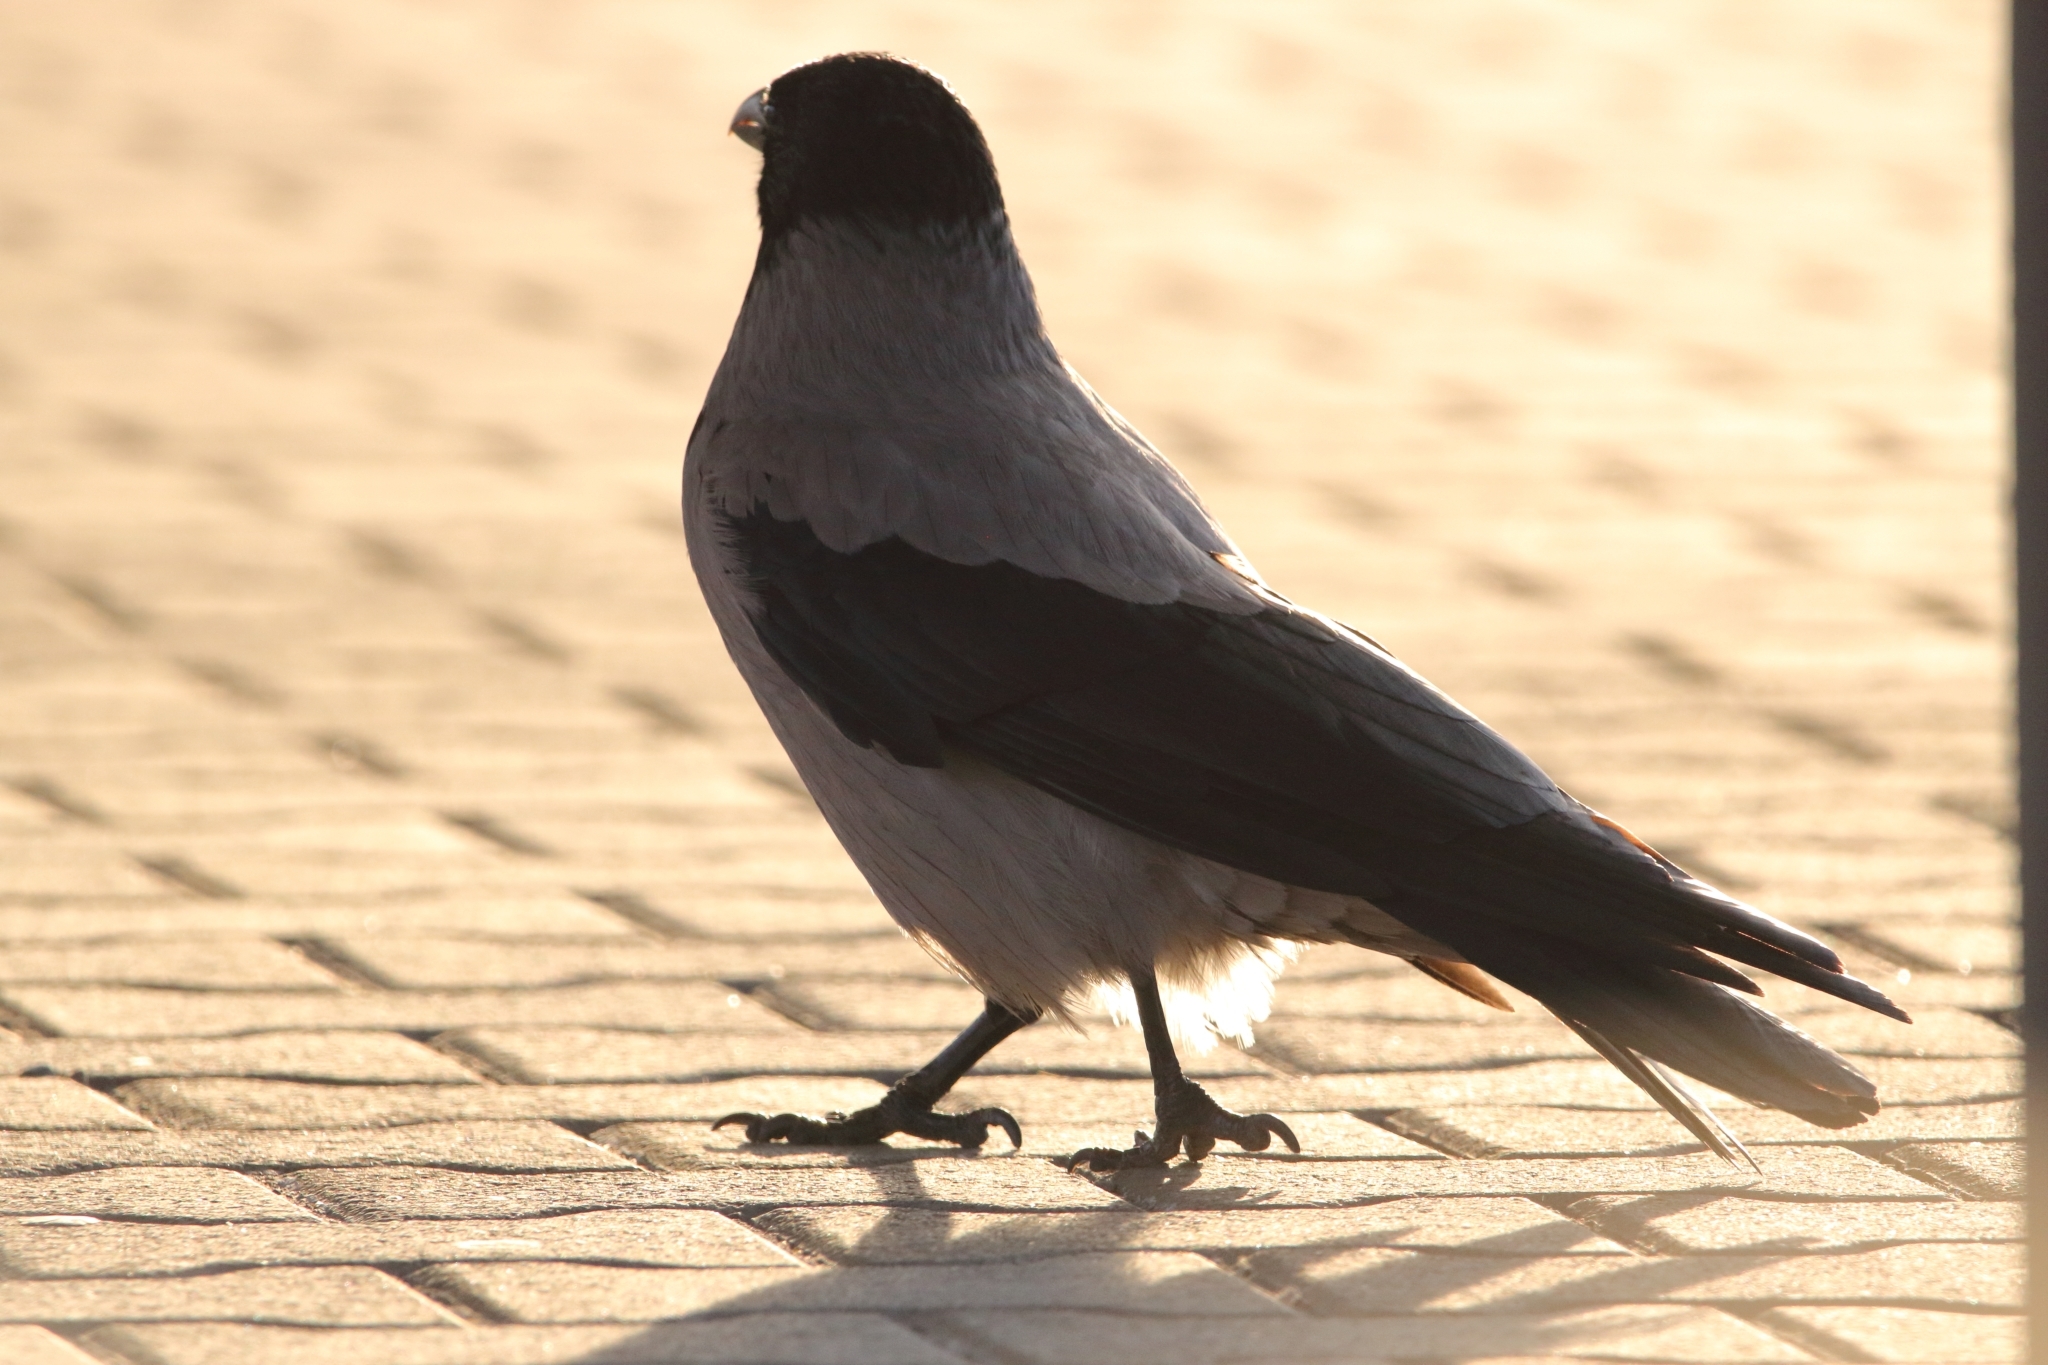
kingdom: Animalia
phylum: Chordata
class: Aves
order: Passeriformes
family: Corvidae
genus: Corvus
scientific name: Corvus cornix
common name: Hooded crow
